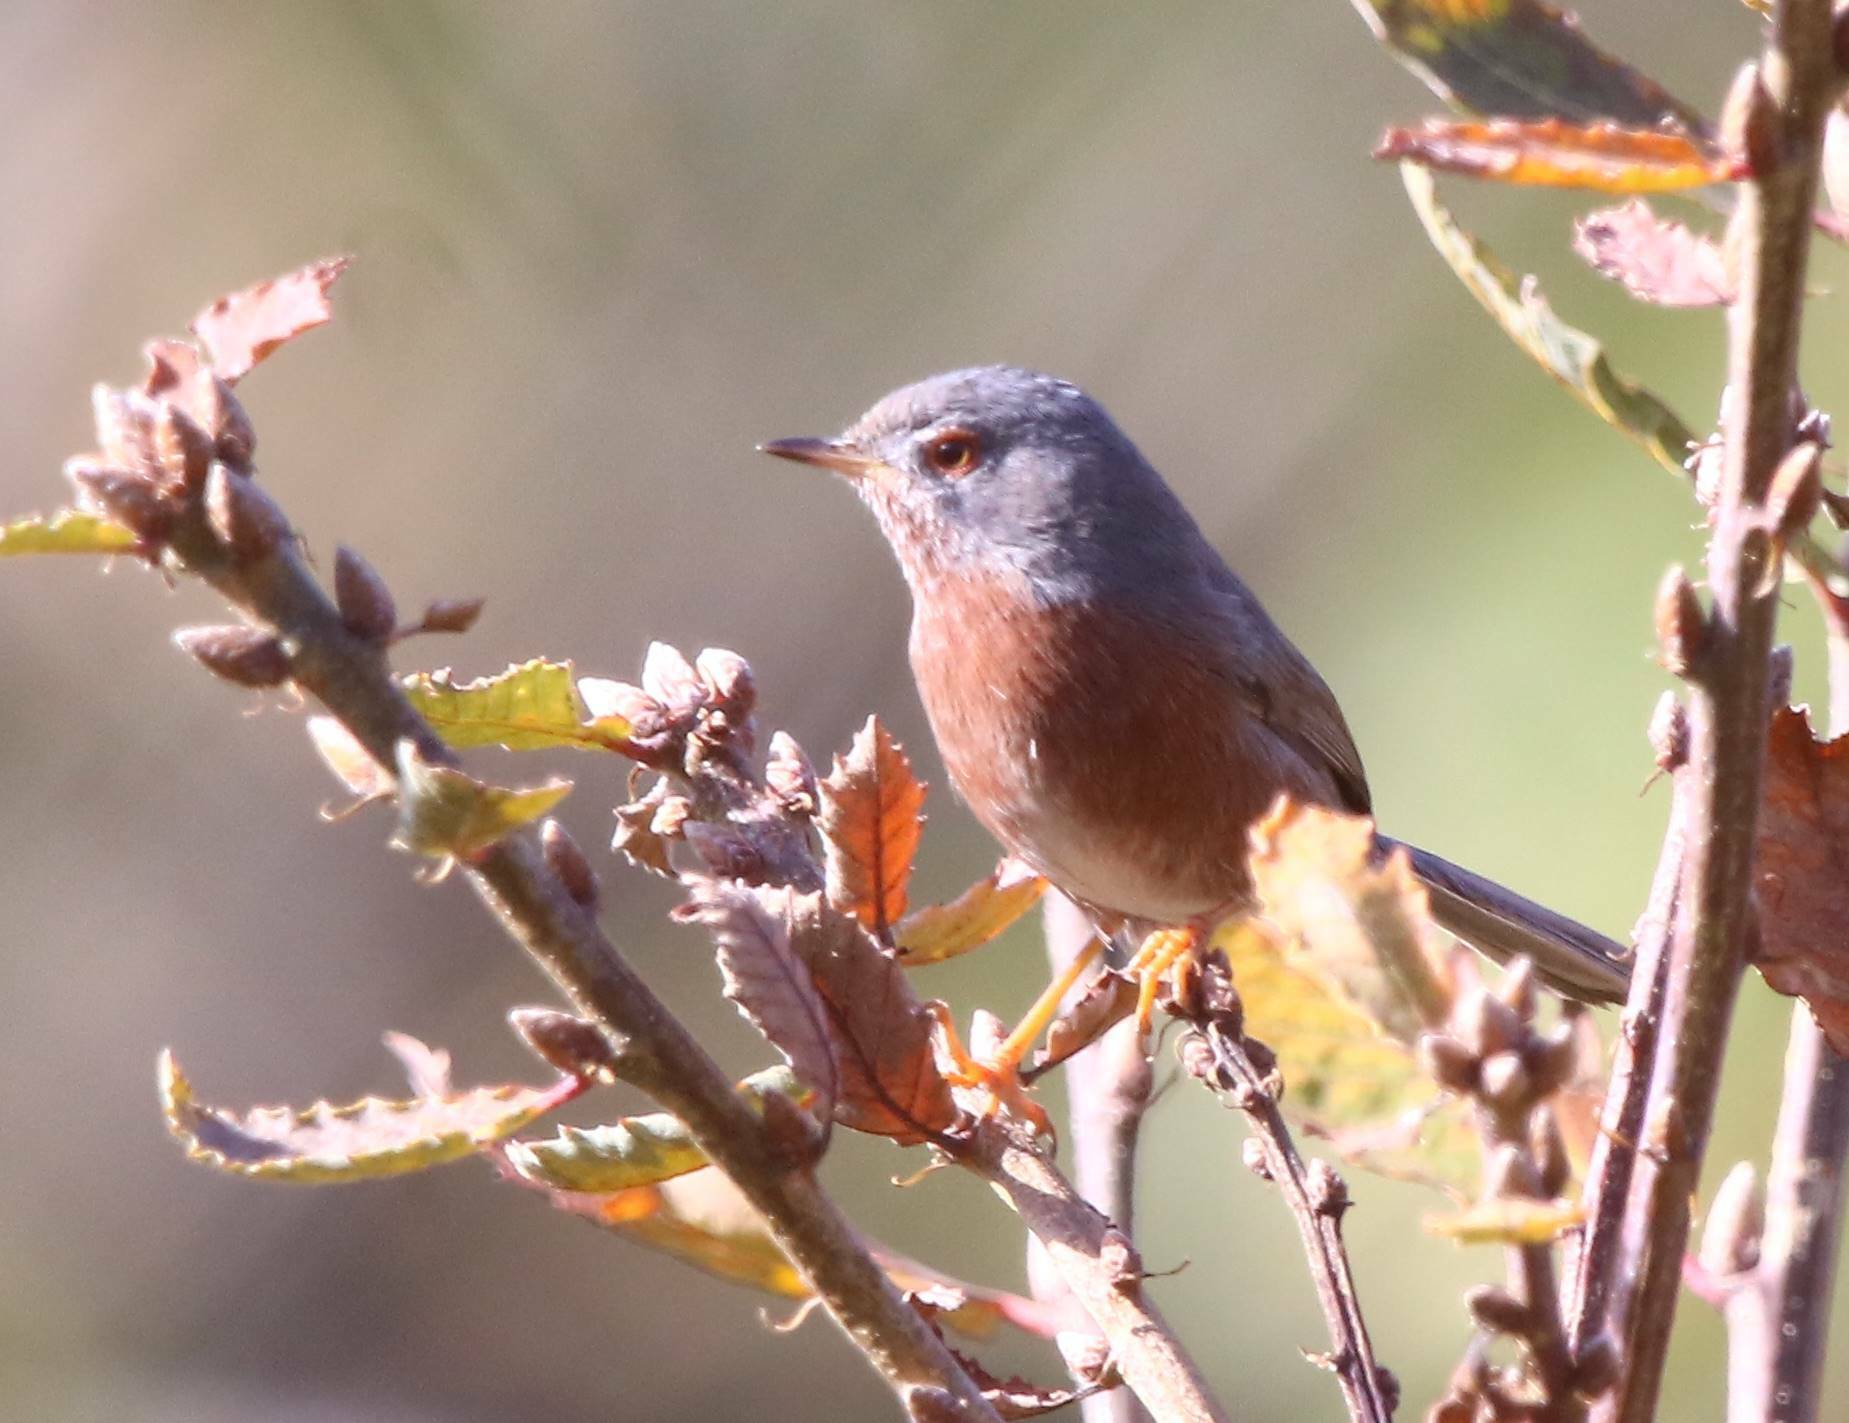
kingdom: Animalia
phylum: Chordata
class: Aves
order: Passeriformes
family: Sylviidae
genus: Sylvia
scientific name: Sylvia undata
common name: Dartford warbler
